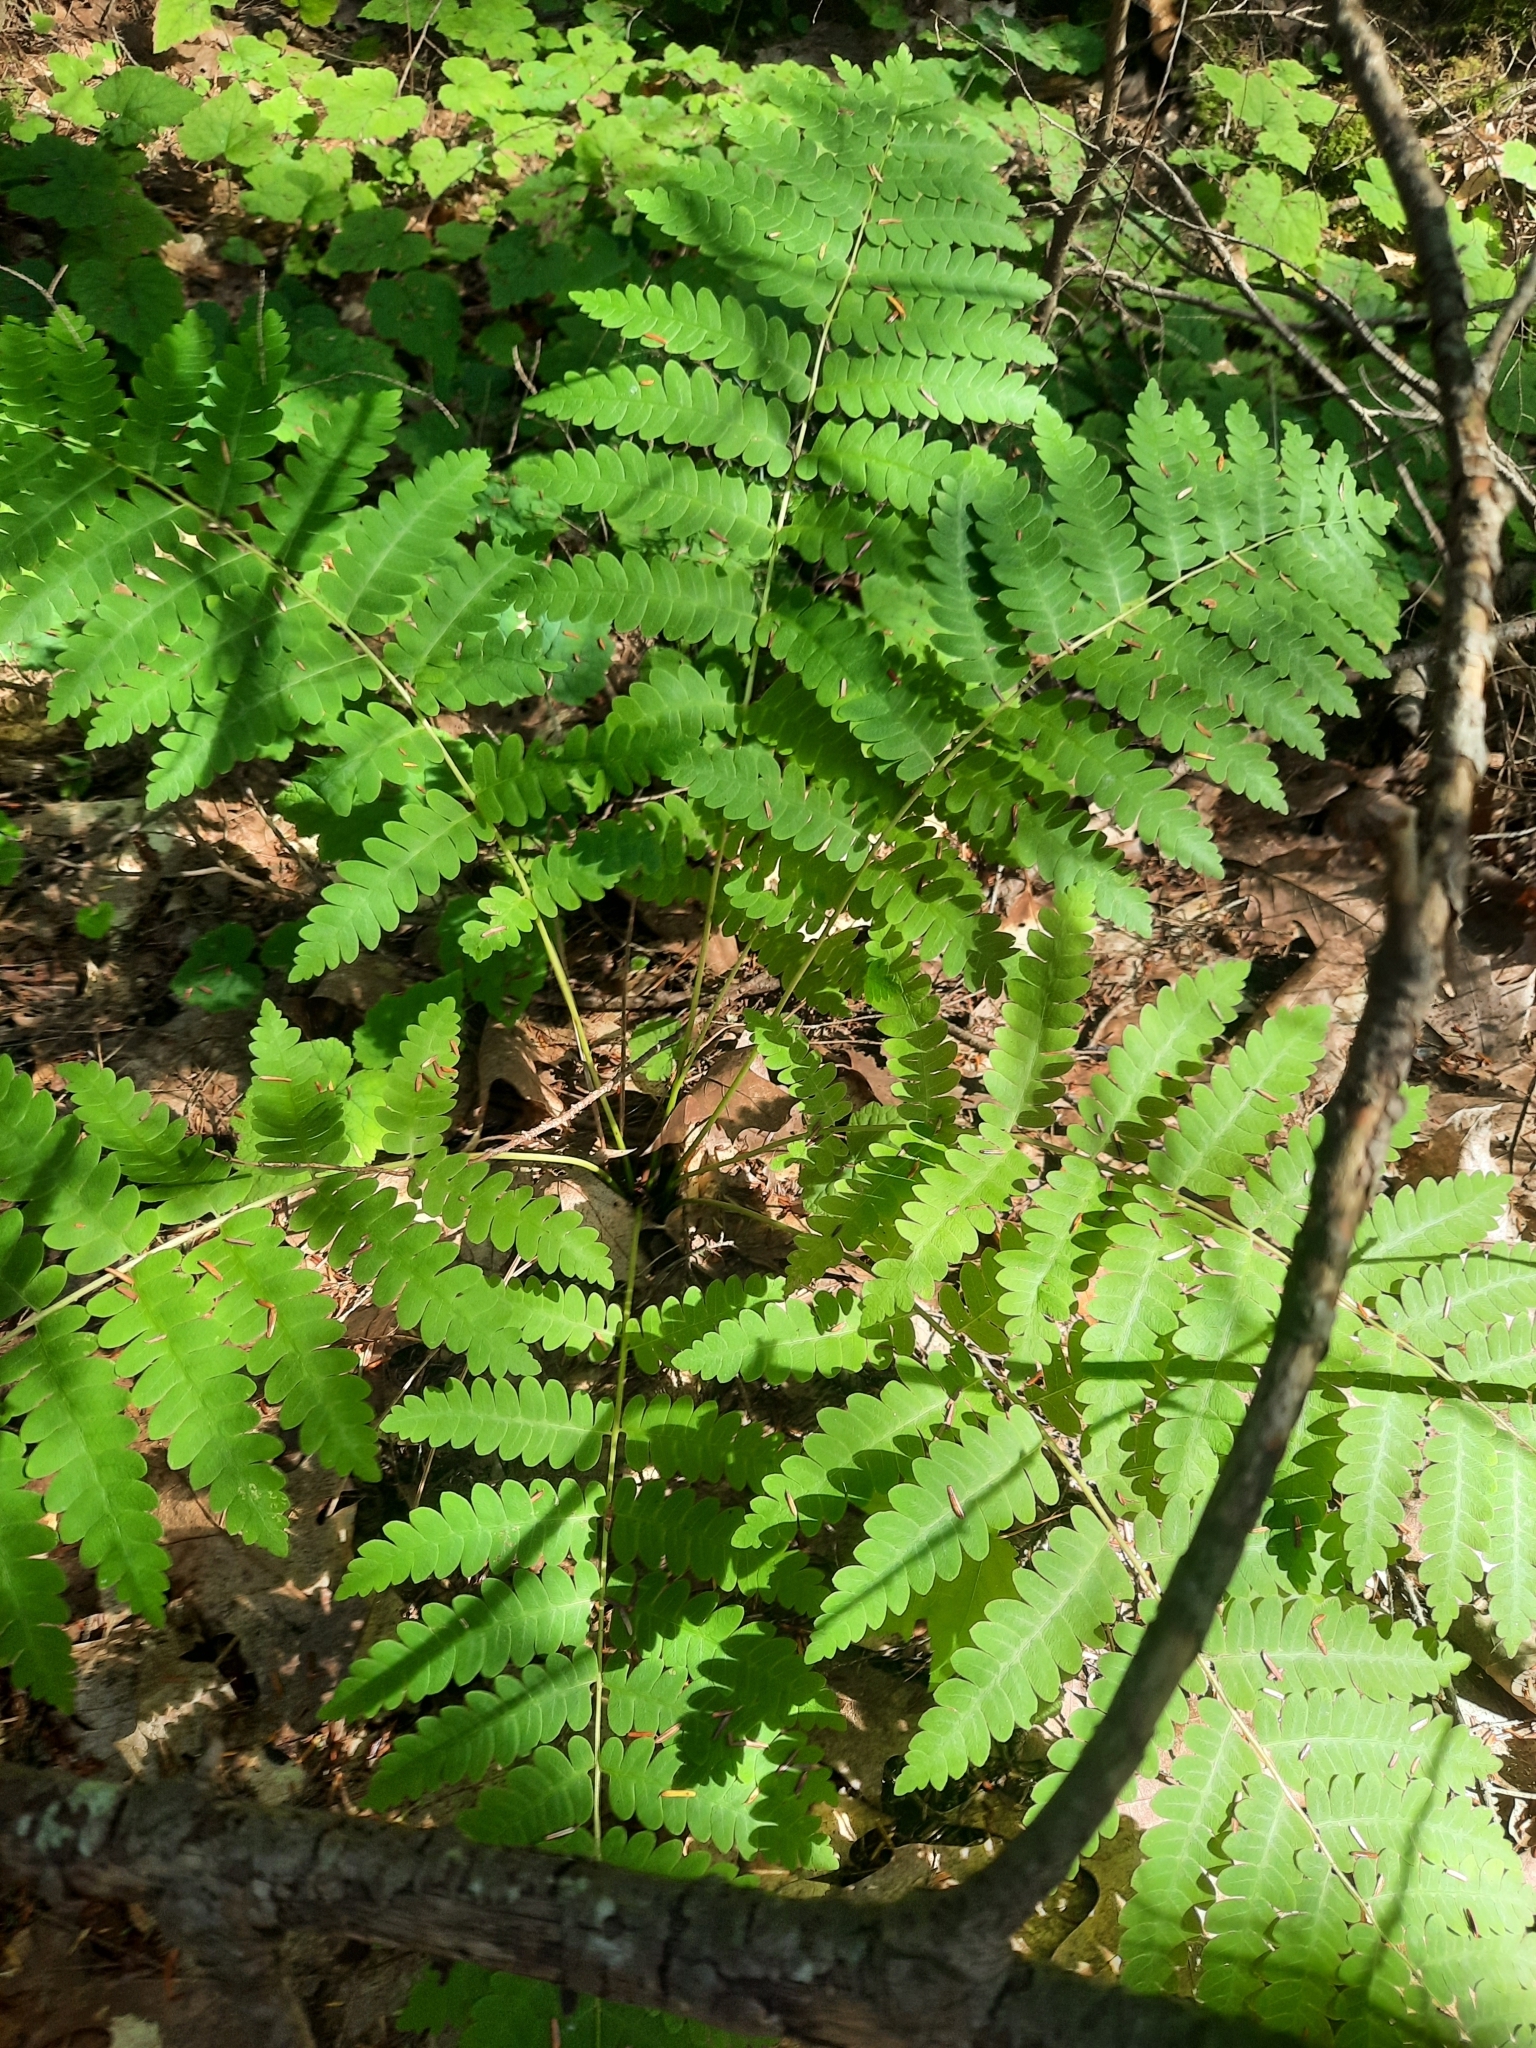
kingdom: Plantae
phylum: Tracheophyta
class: Polypodiopsida
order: Osmundales
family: Osmundaceae
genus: Claytosmunda
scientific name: Claytosmunda claytoniana
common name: Clayton's fern
